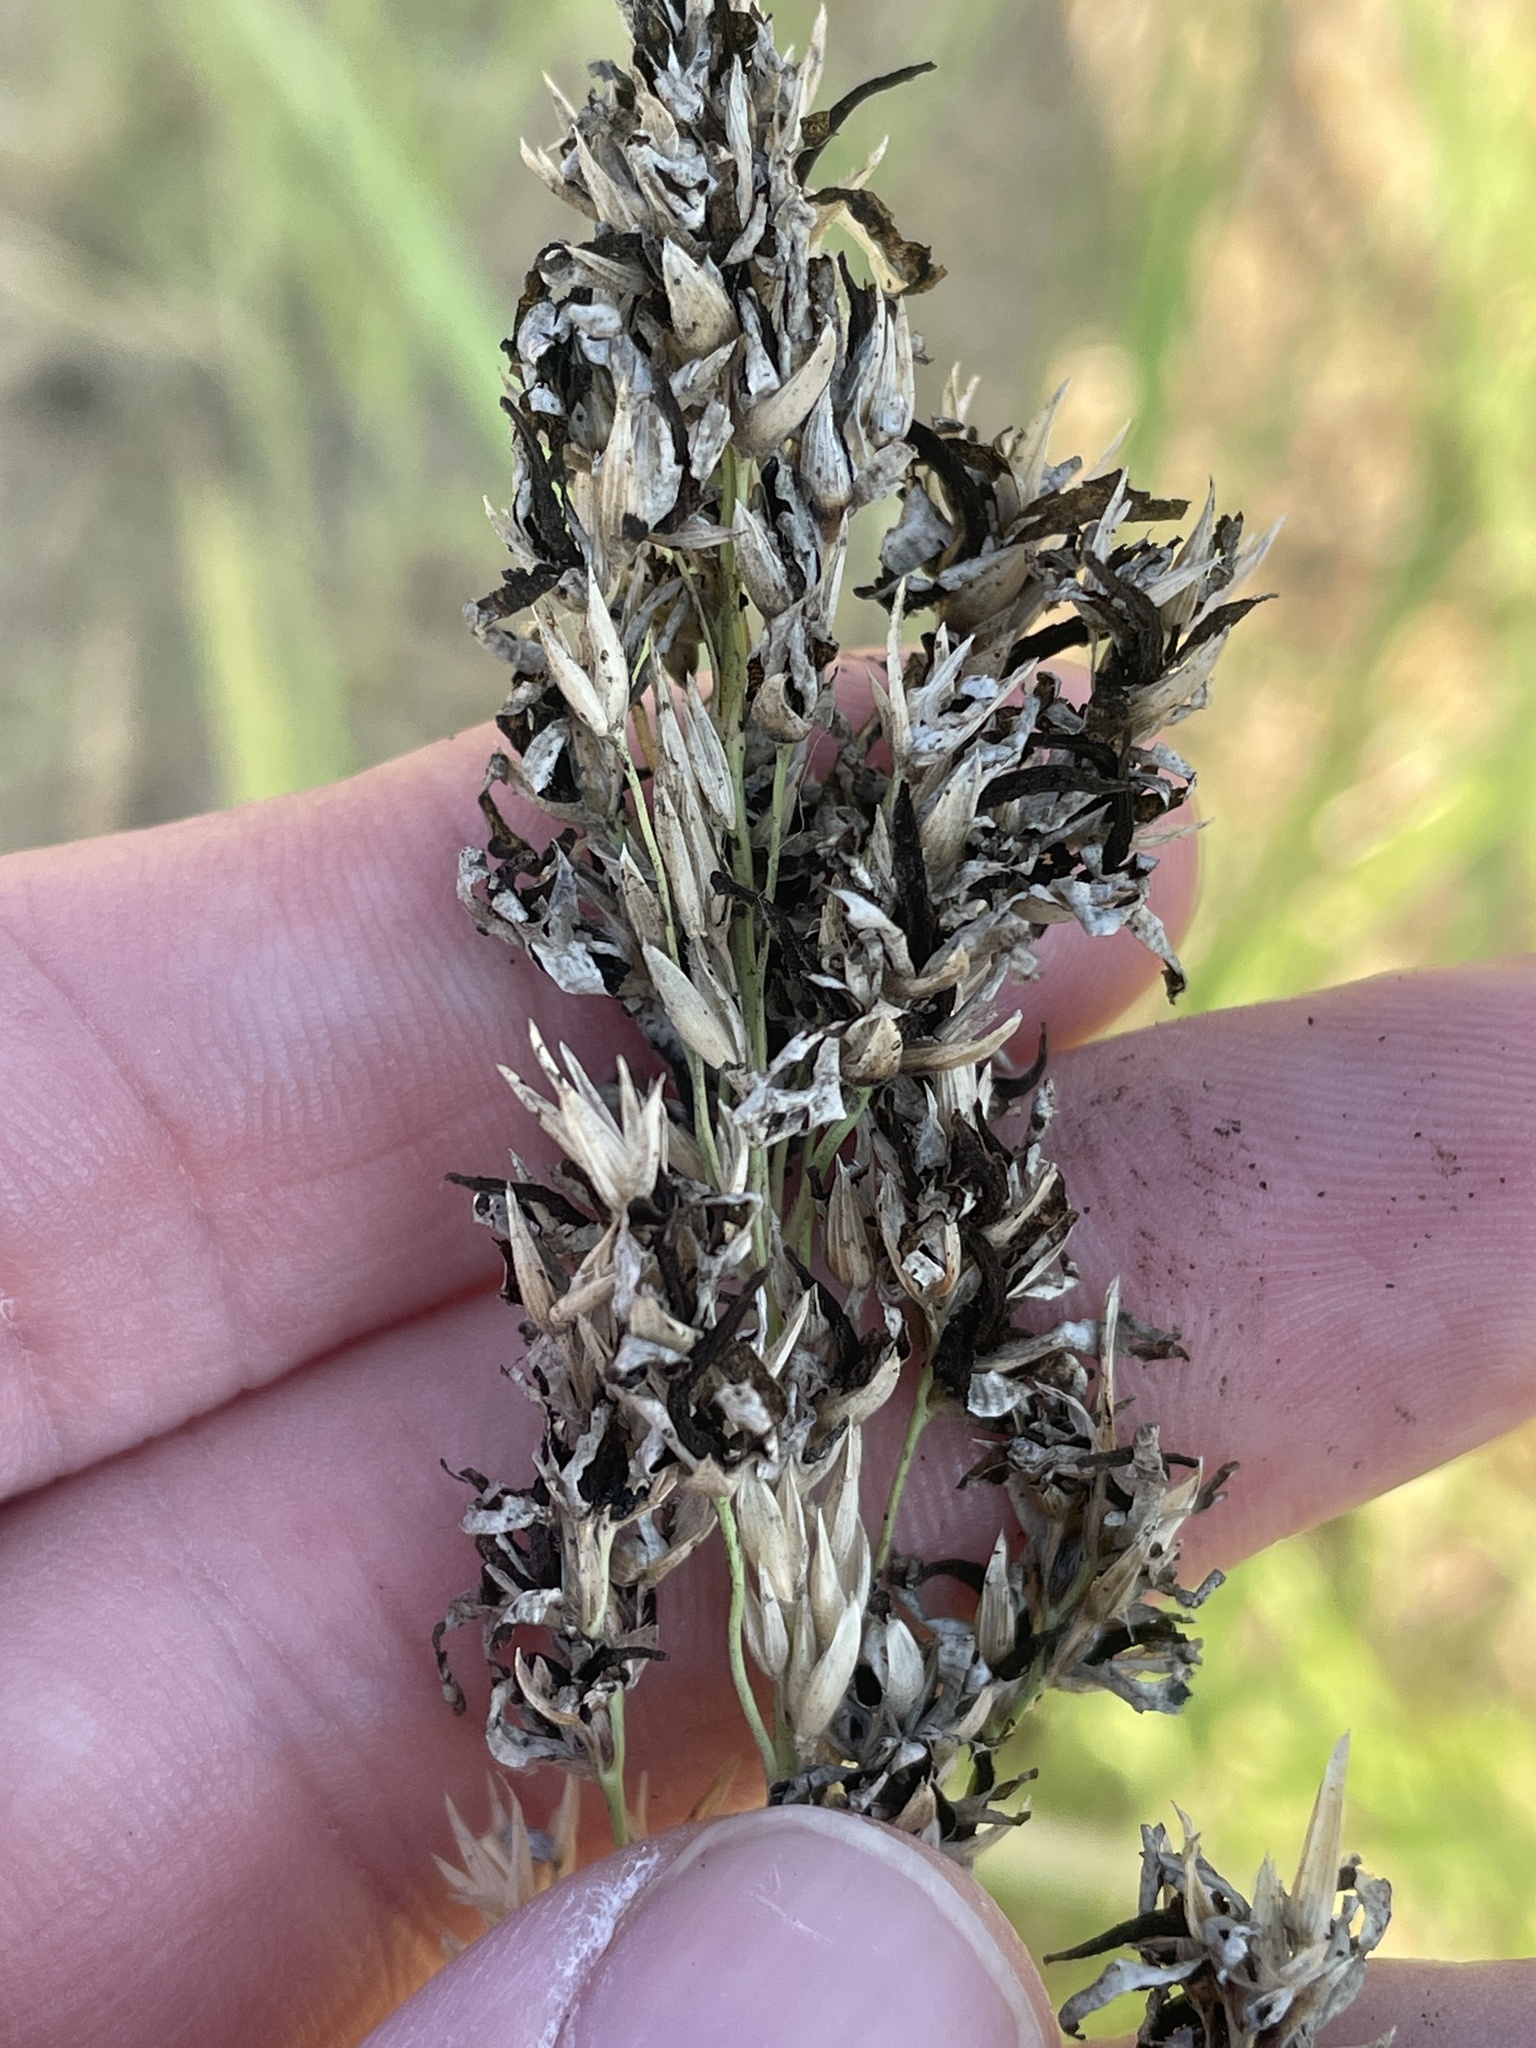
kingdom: Fungi
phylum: Basidiomycota
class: Ustilaginomycetes
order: Ustilaginales
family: Ustilaginaceae
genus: Sporisorium
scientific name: Sporisorium cruentum
